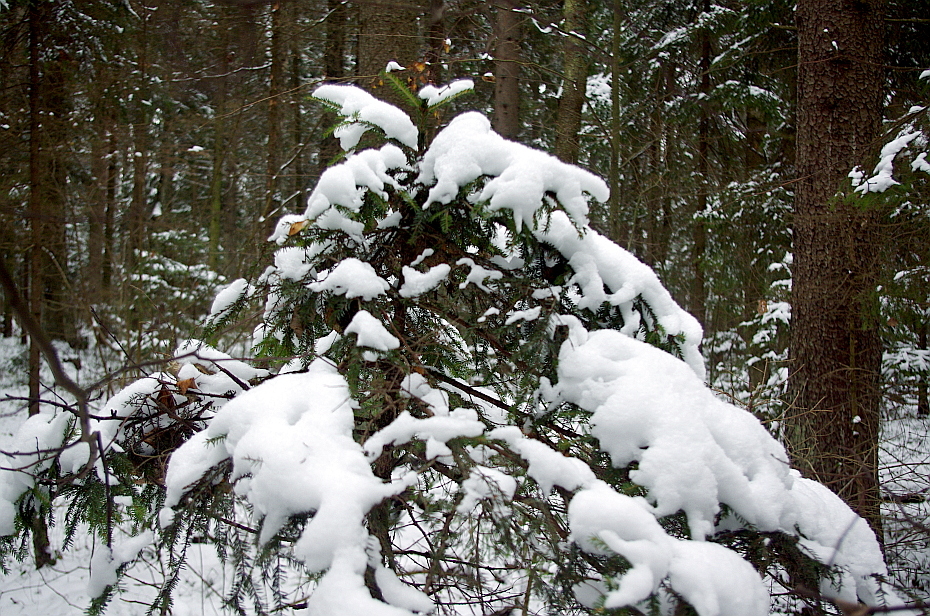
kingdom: Plantae
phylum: Tracheophyta
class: Pinopsida
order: Pinales
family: Pinaceae
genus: Picea
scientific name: Picea abies
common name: Norway spruce
